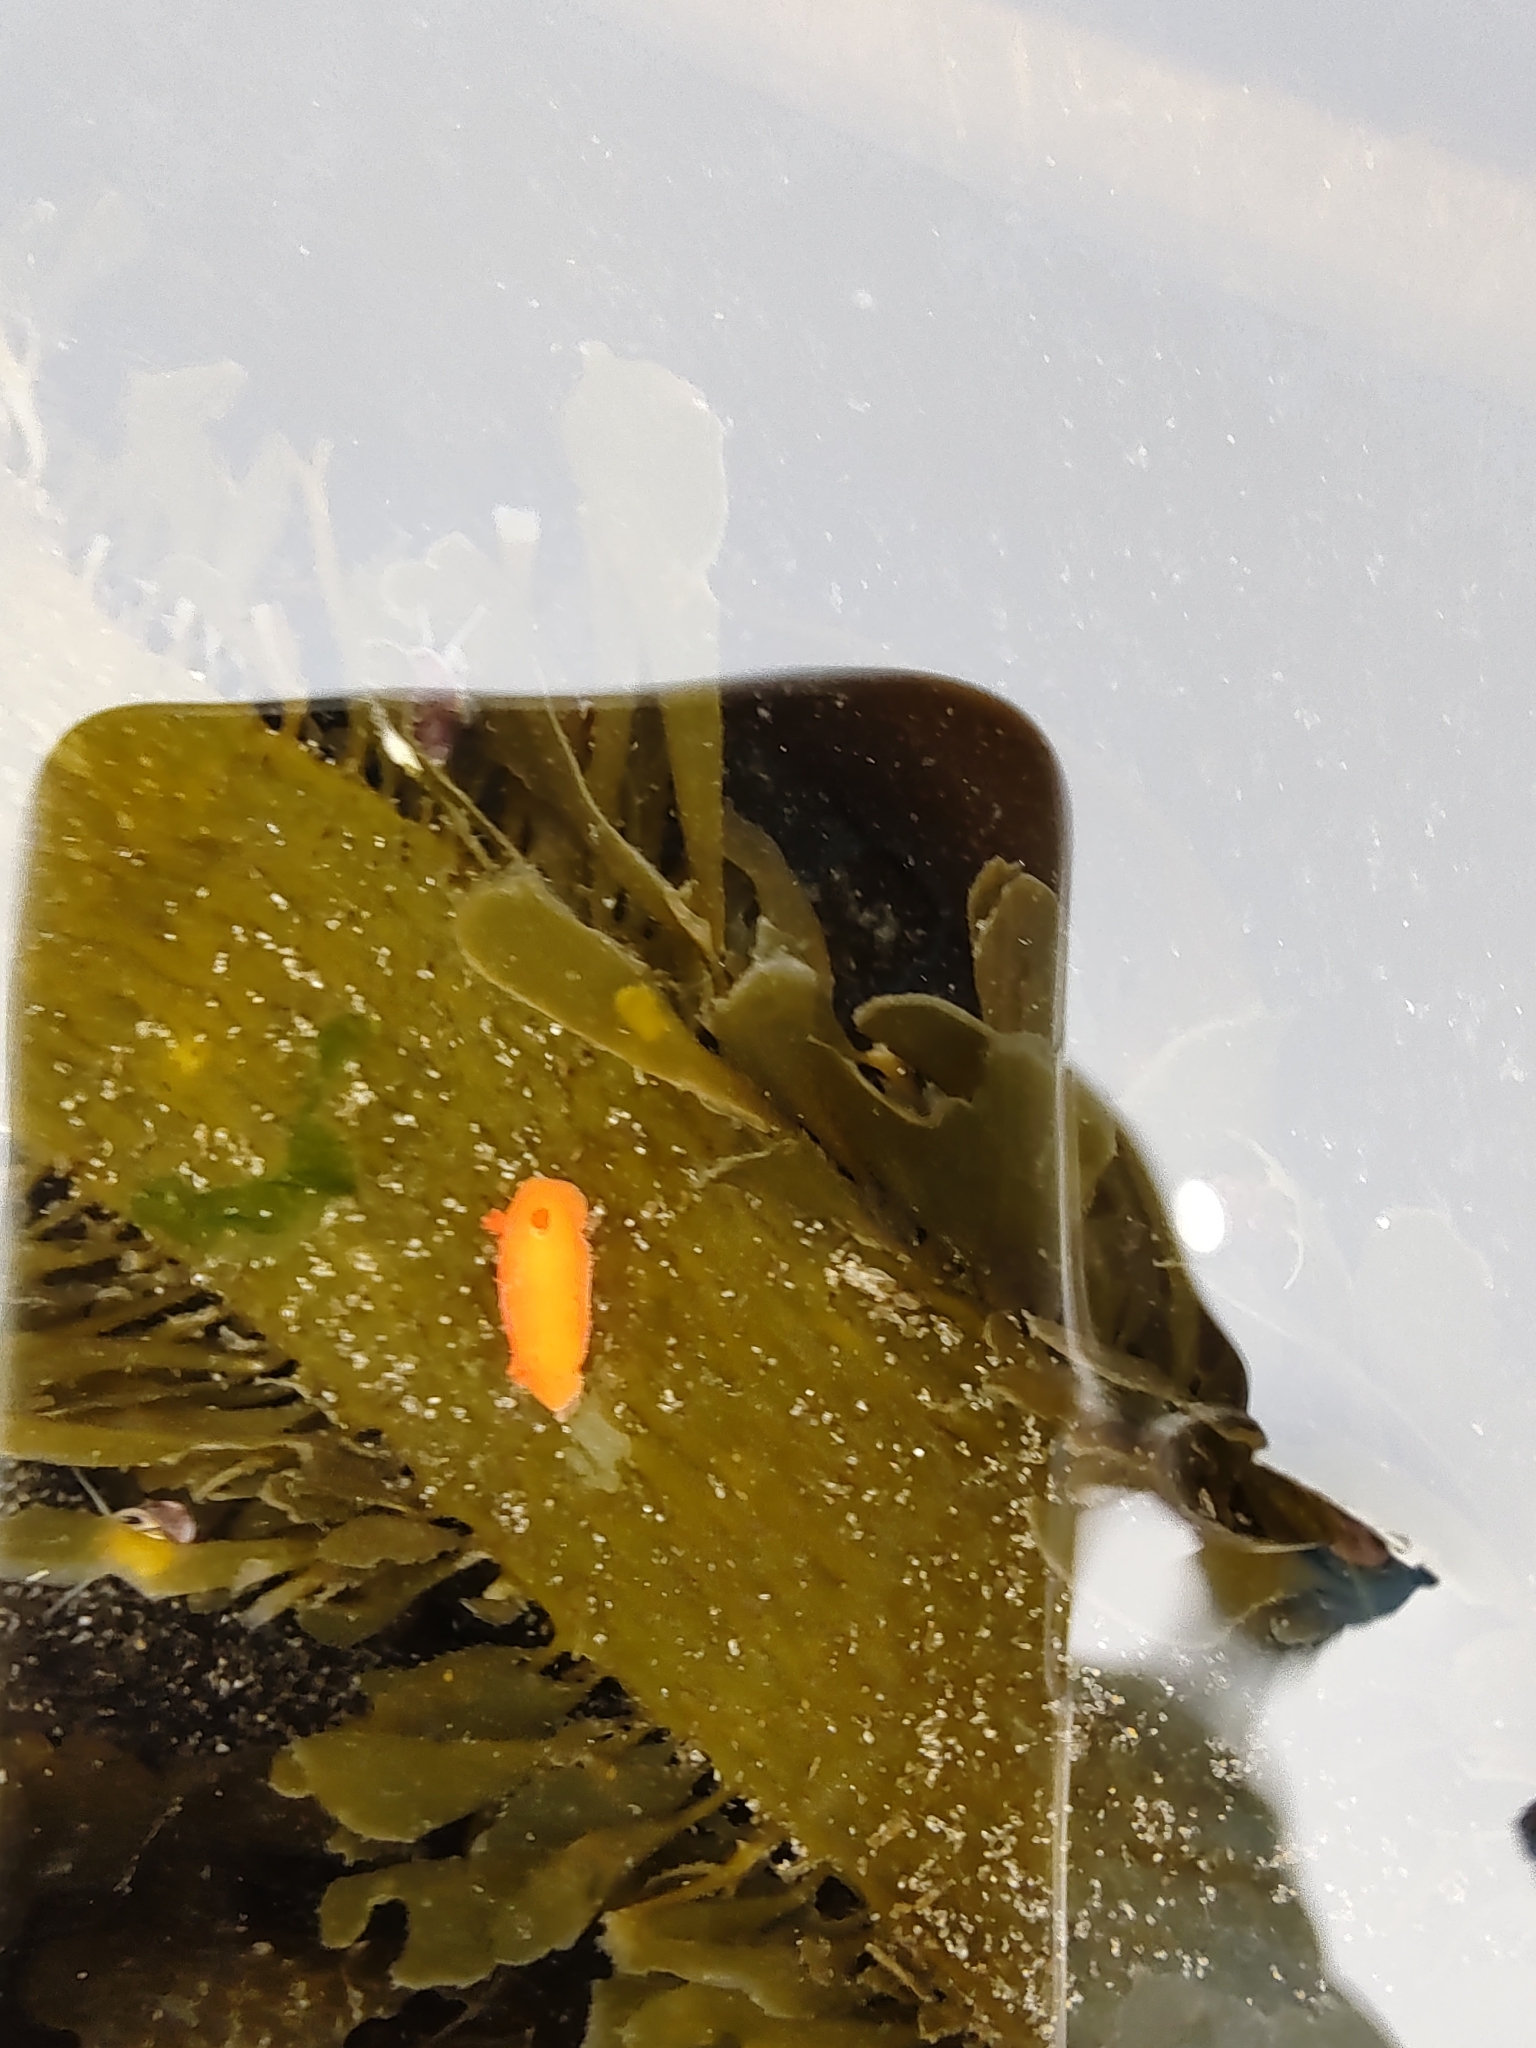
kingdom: Animalia
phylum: Mollusca
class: Gastropoda
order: Nudibranchia
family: Discodorididae
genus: Rostanga
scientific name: Rostanga pulchra
